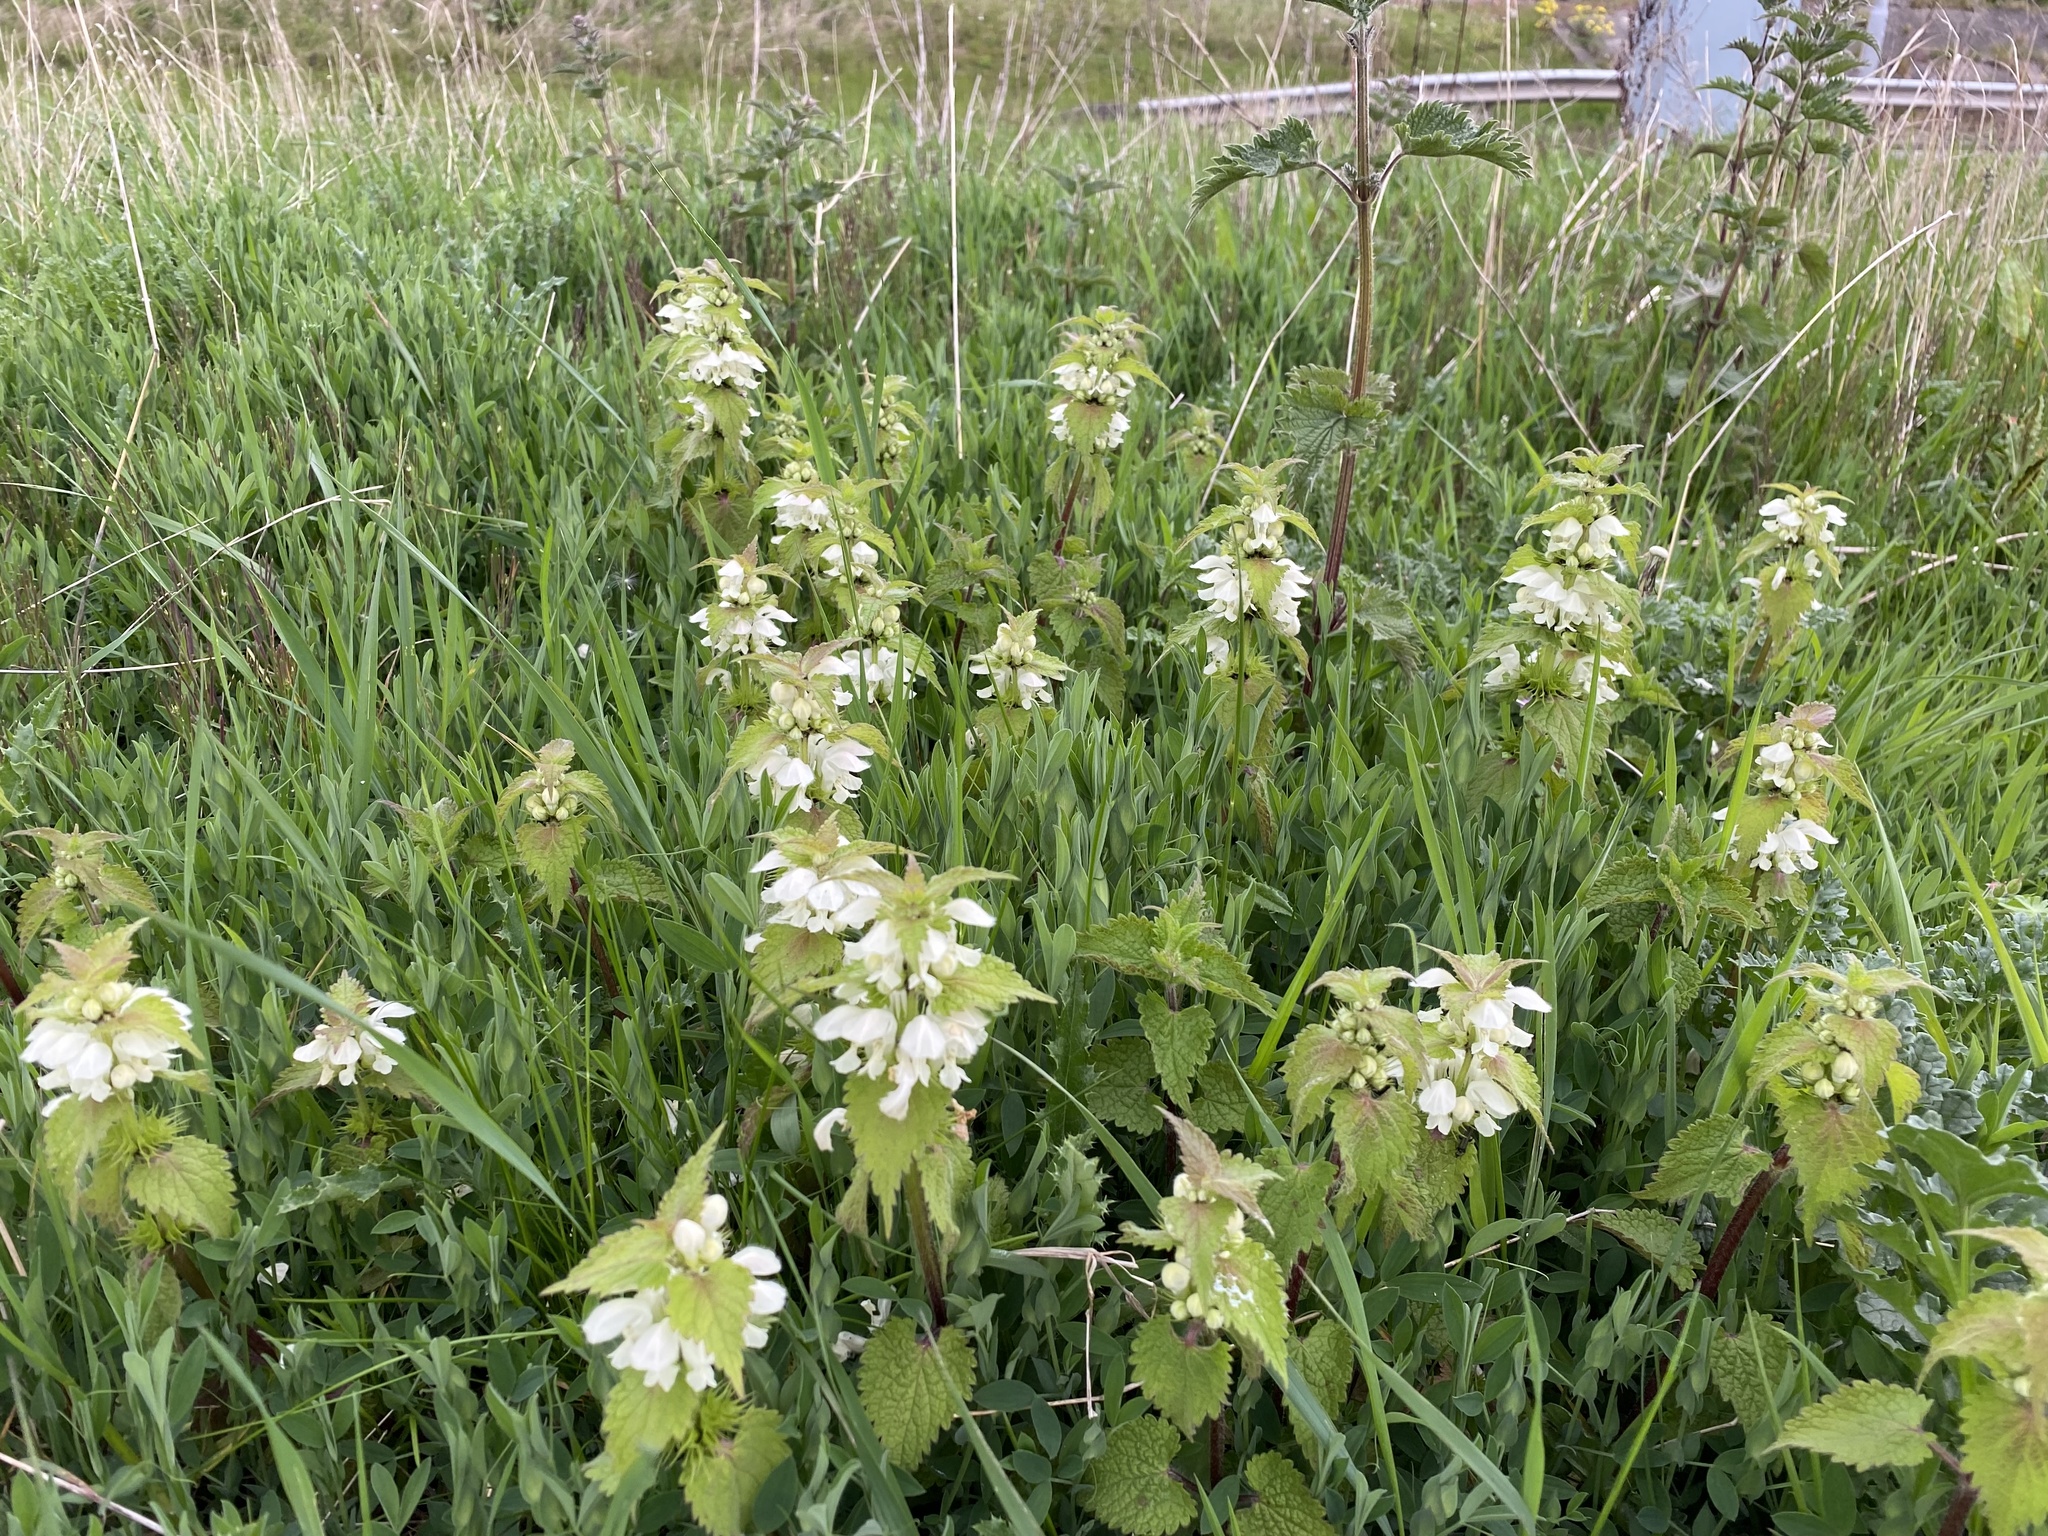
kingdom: Plantae
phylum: Tracheophyta
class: Magnoliopsida
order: Lamiales
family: Lamiaceae
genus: Lamium
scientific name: Lamium album
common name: White dead-nettle
